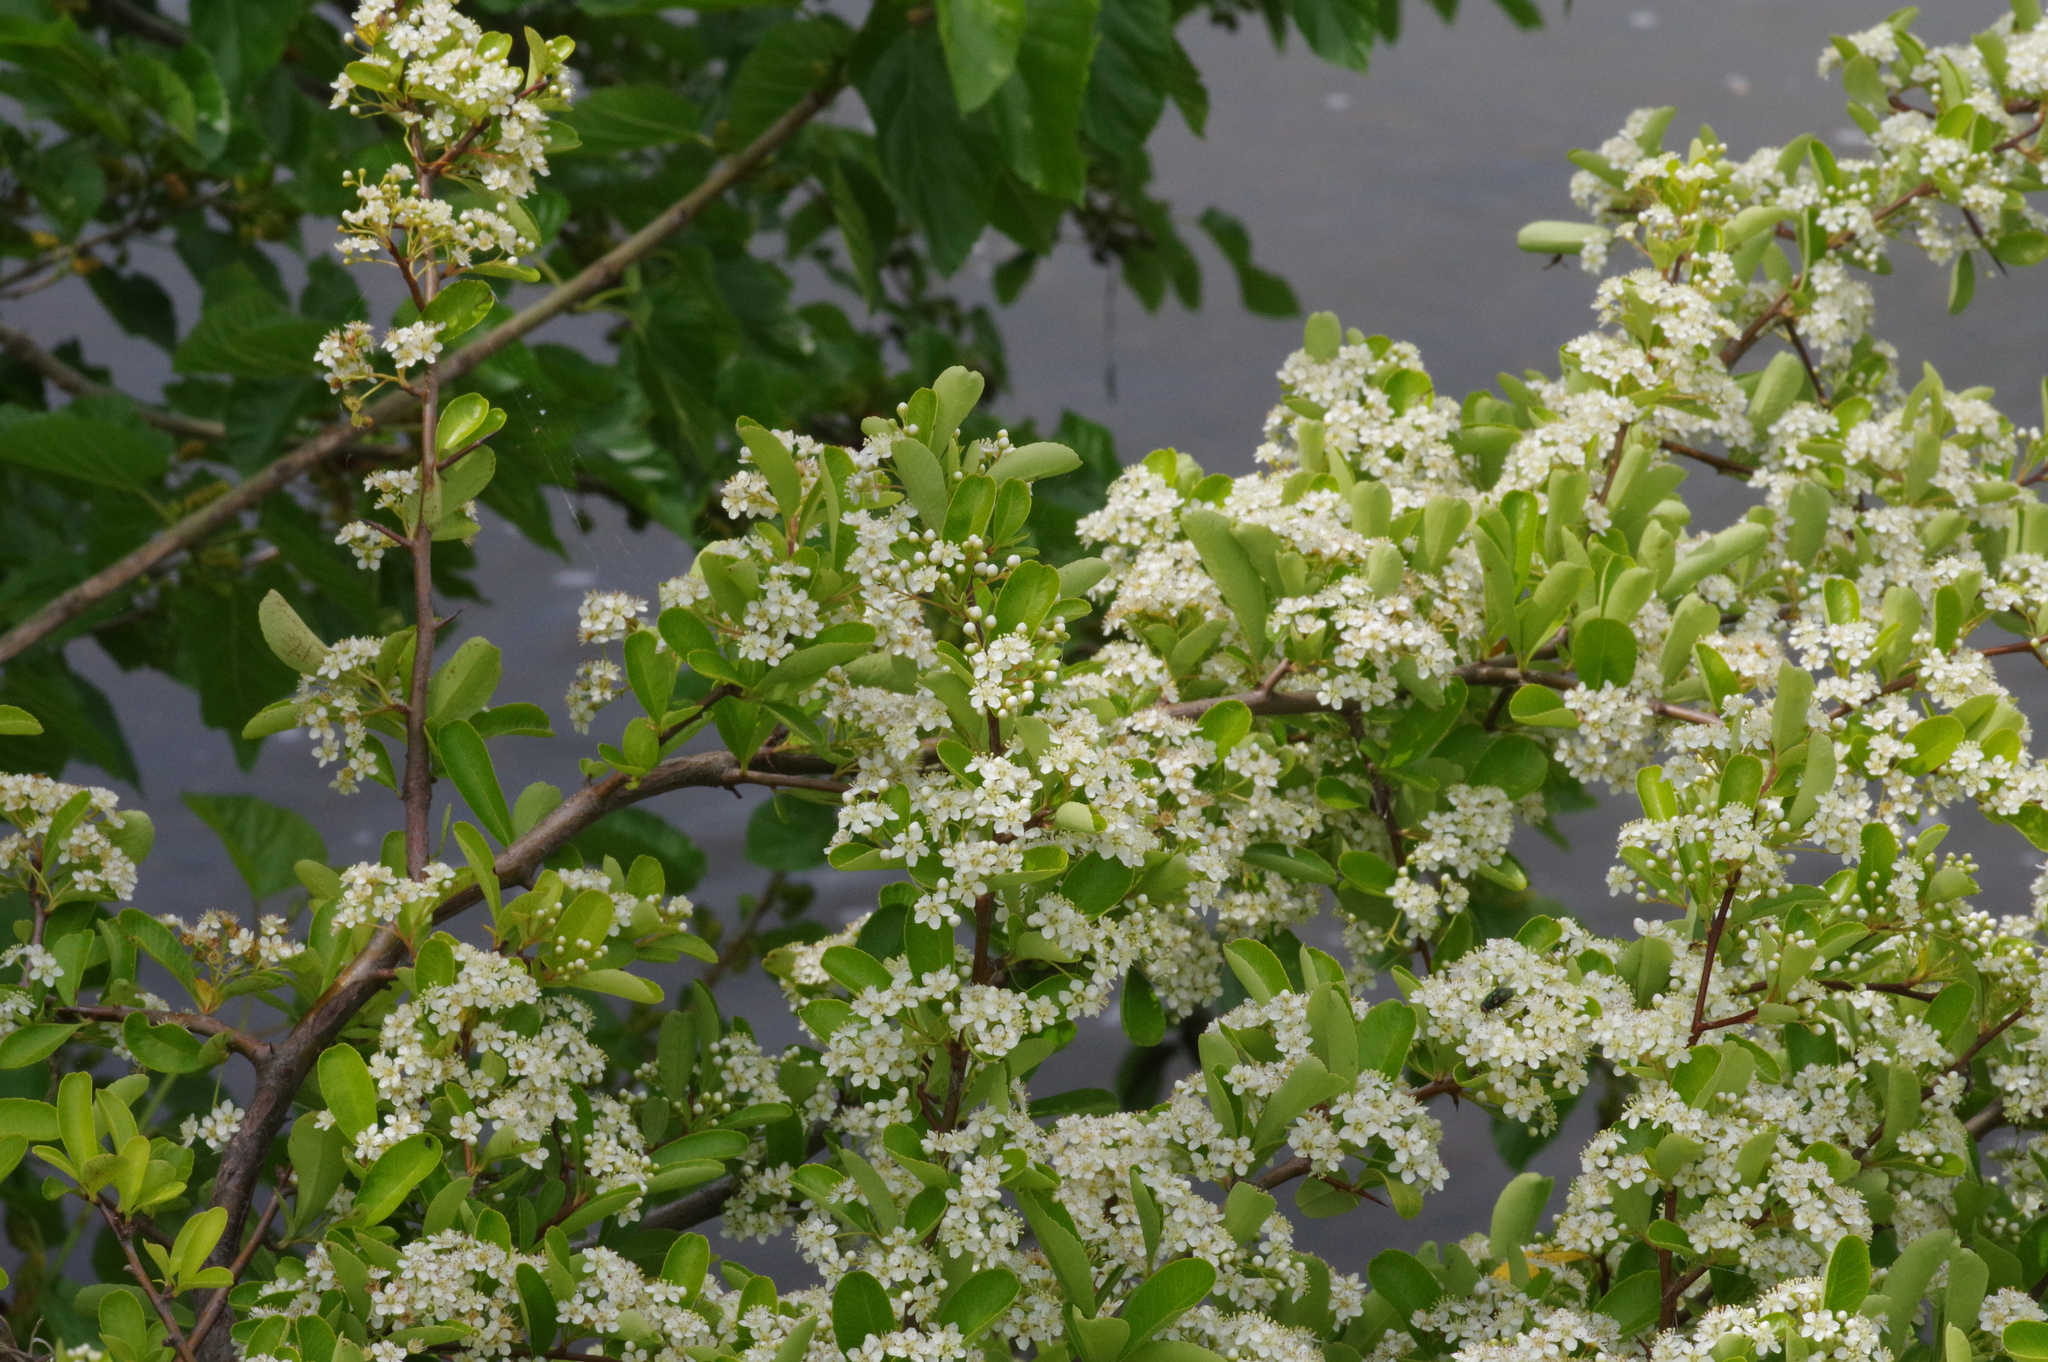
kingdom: Plantae
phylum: Tracheophyta
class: Magnoliopsida
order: Rosales
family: Rosaceae
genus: Pyracantha
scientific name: Pyracantha coccinea
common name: Firethorn
